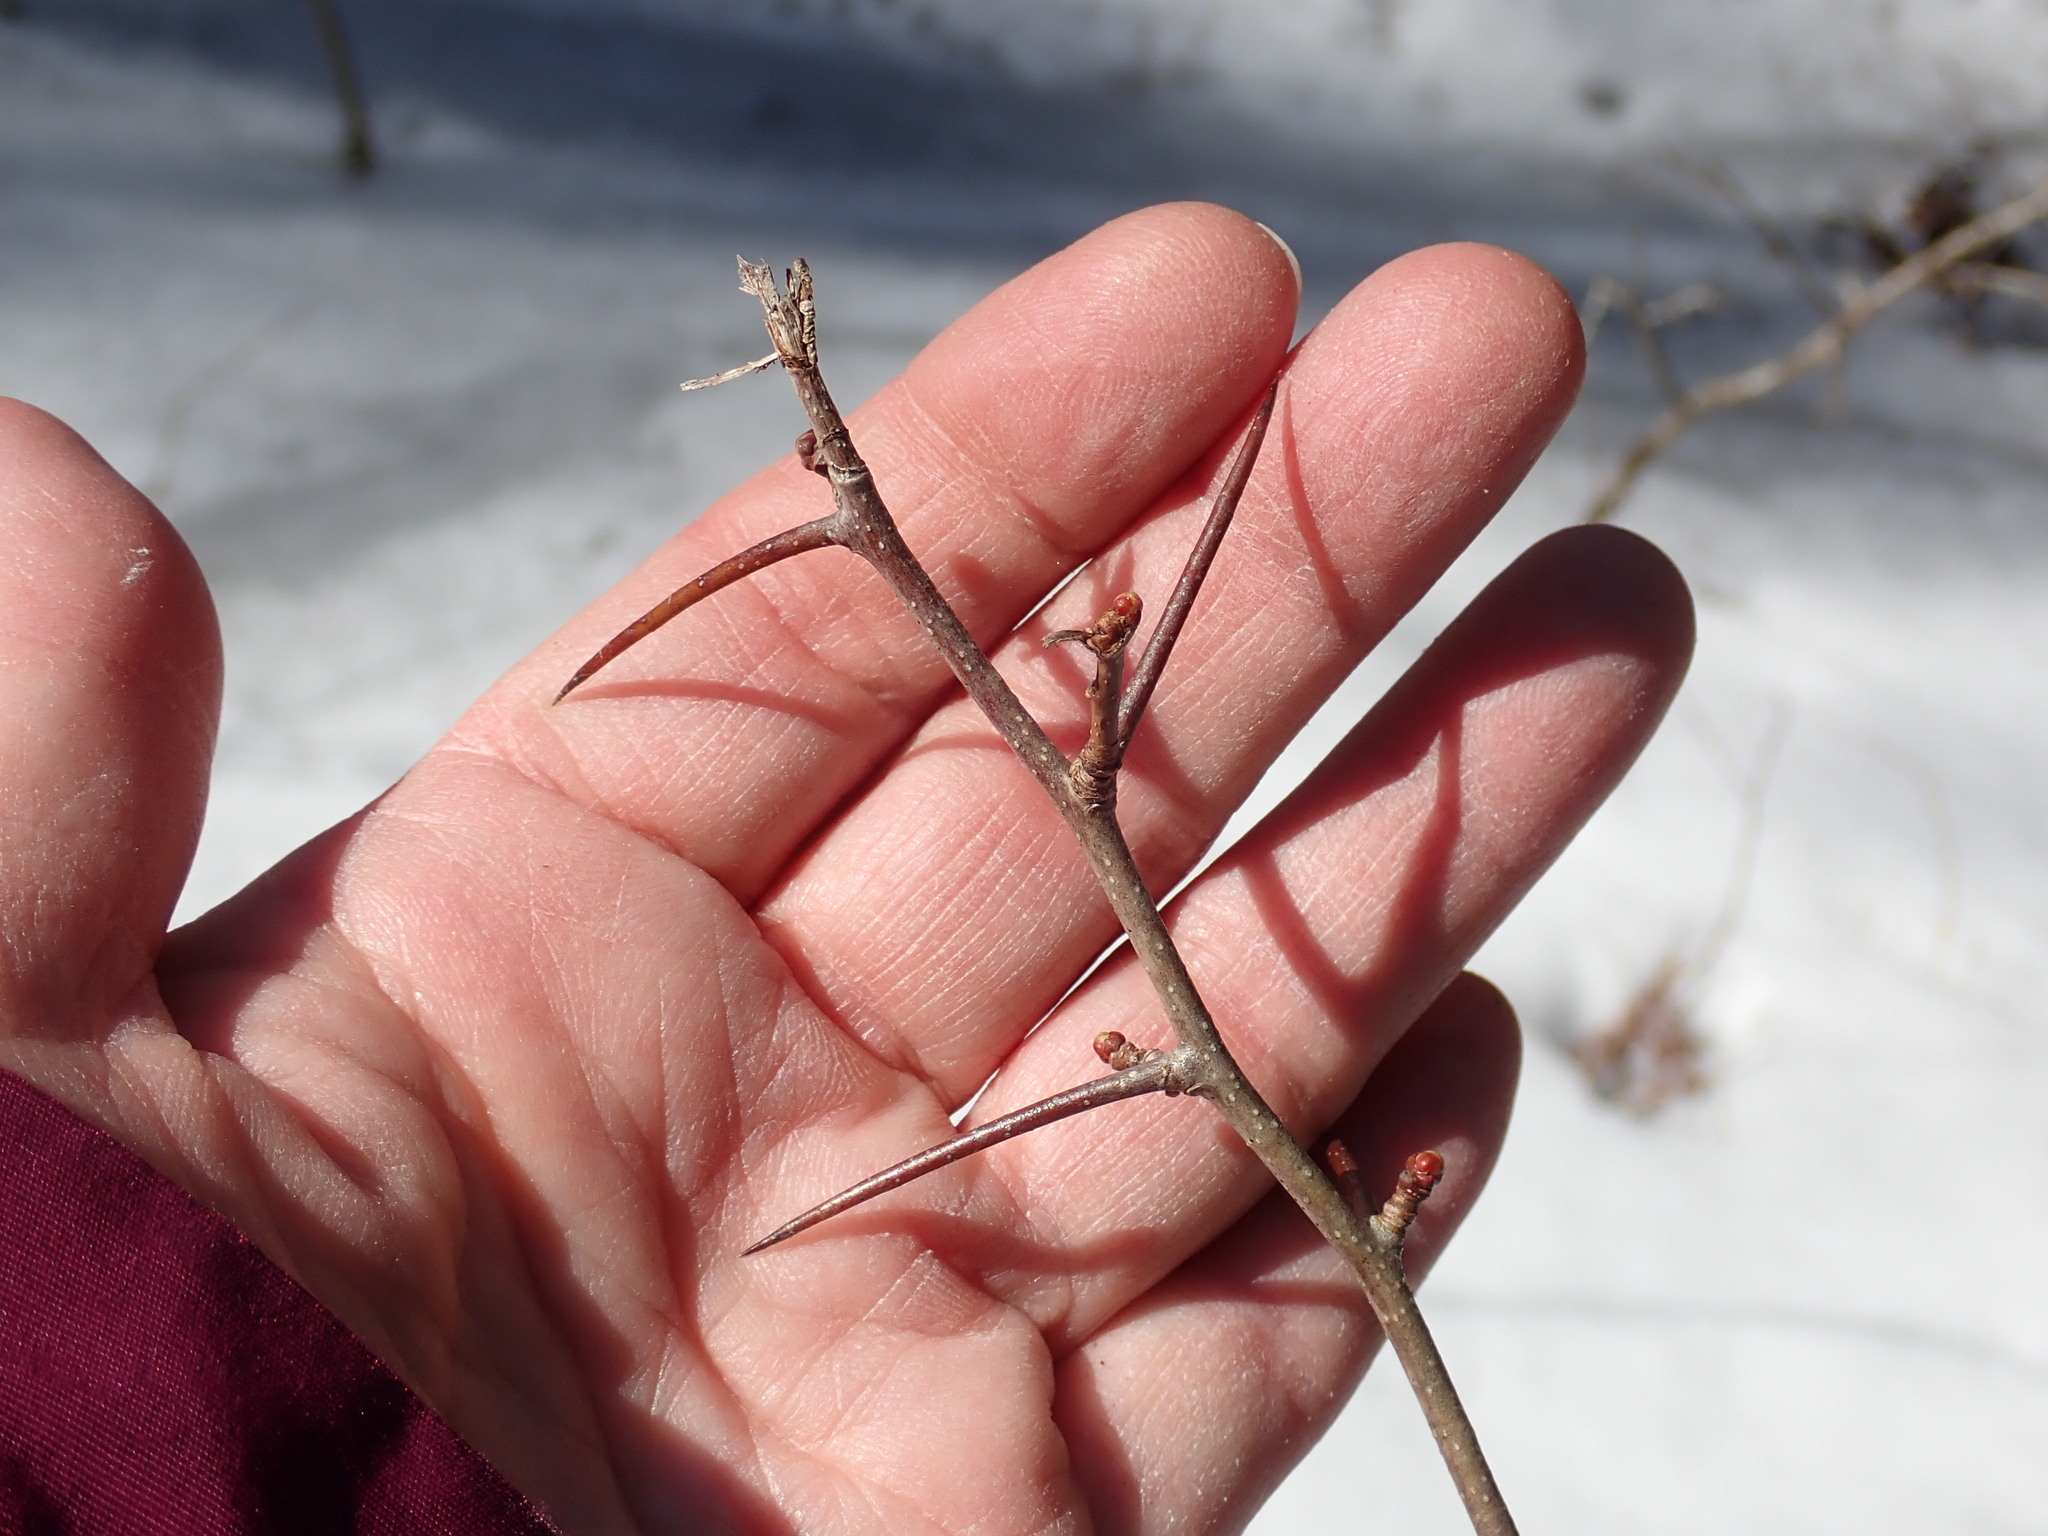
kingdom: Plantae
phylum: Tracheophyta
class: Magnoliopsida
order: Rosales
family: Rosaceae
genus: Crataegus
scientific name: Crataegus
